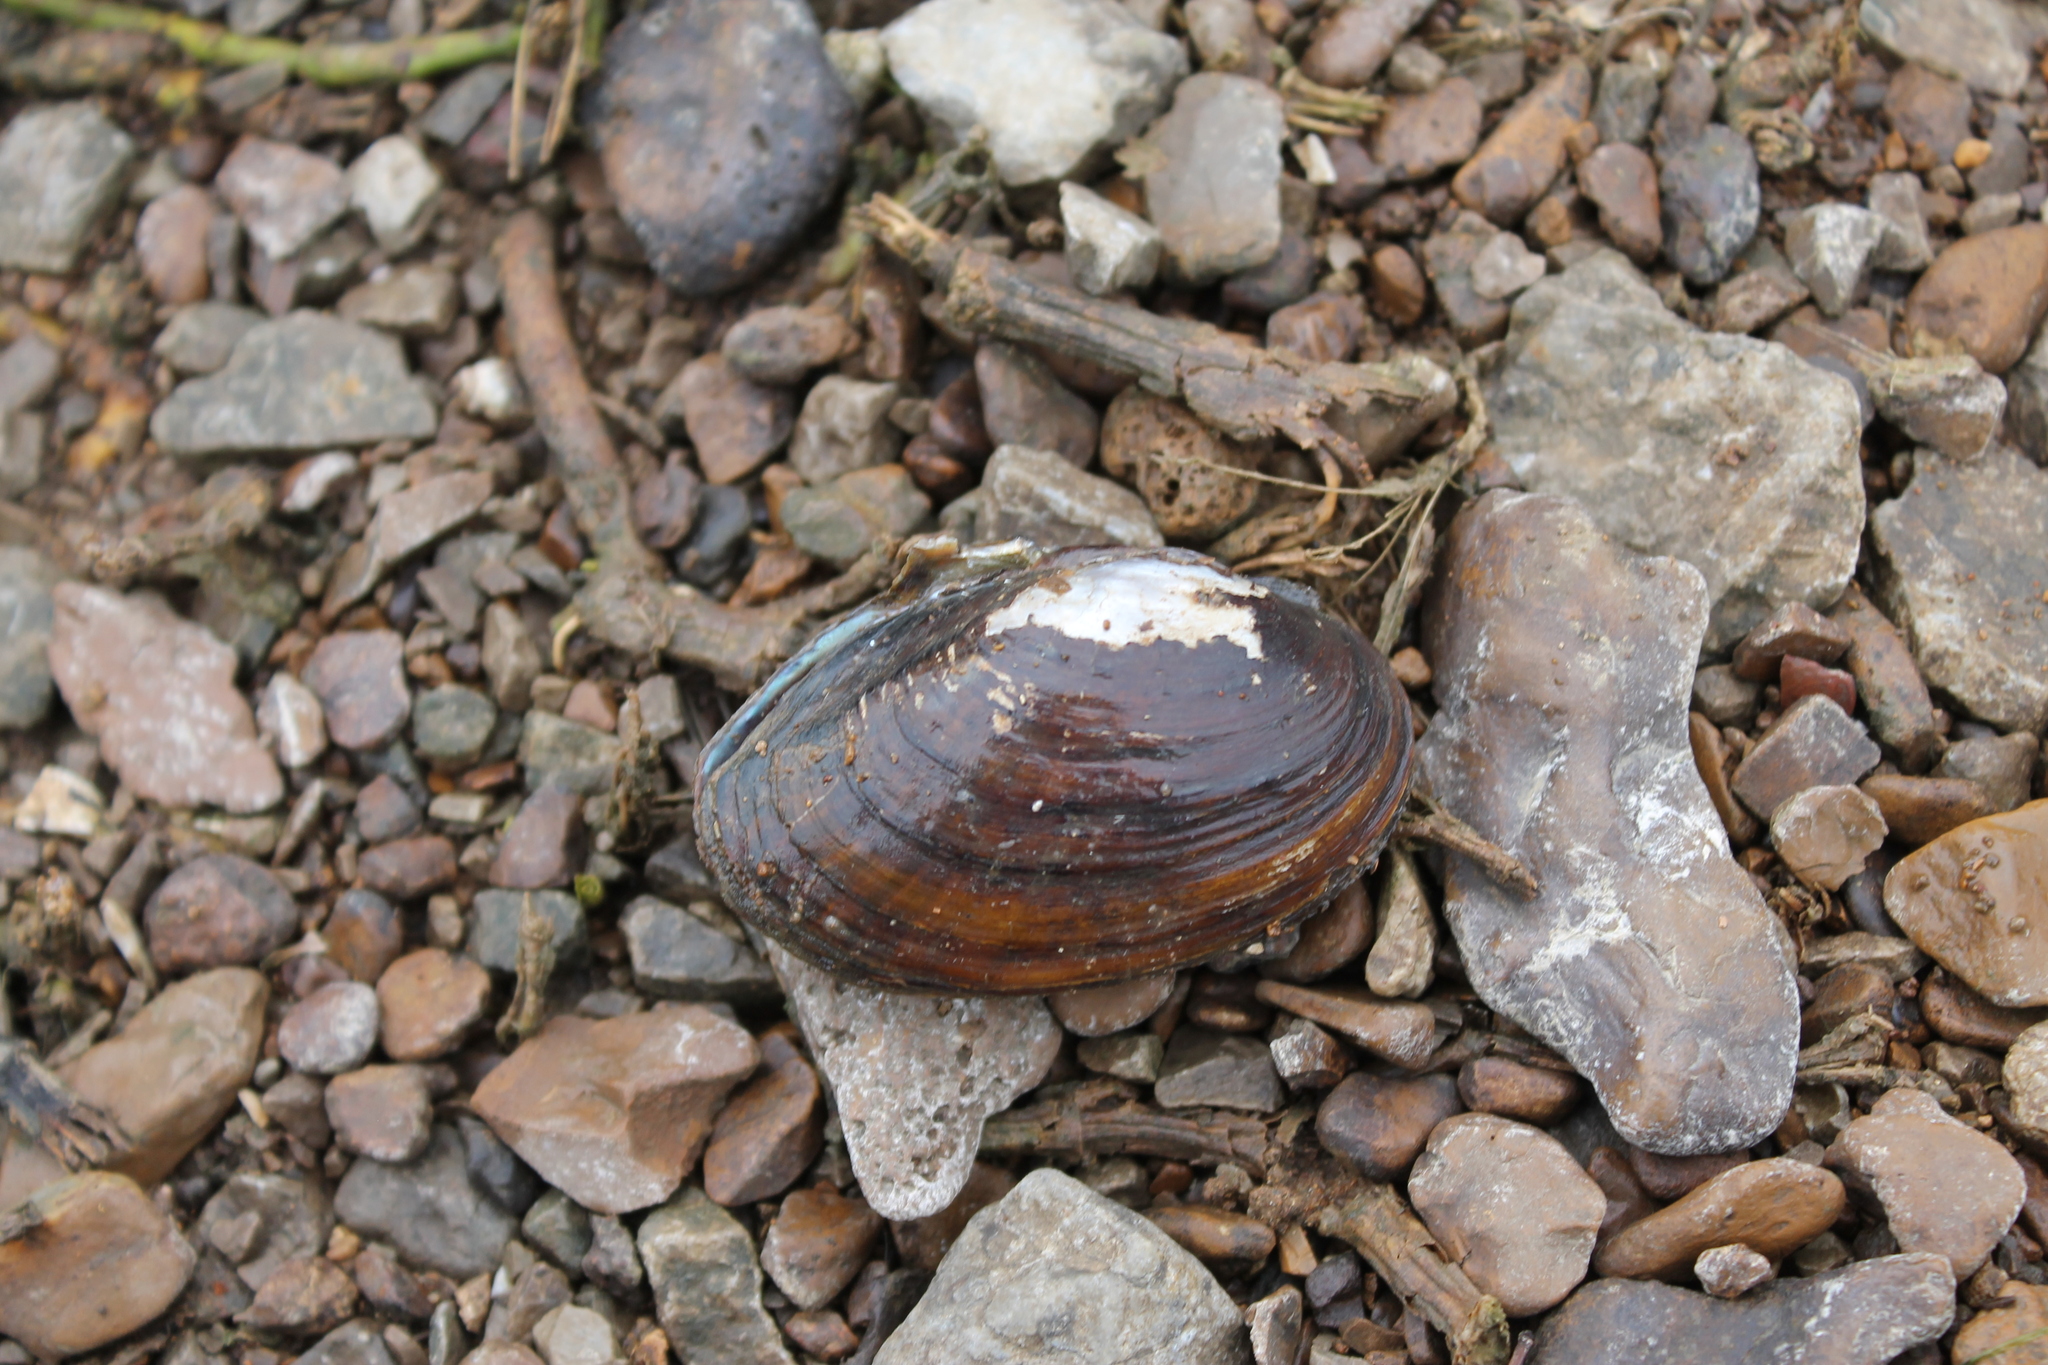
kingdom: Animalia
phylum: Mollusca
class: Bivalvia
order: Unionida
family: Unionidae
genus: Leaunio
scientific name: Leaunio vanuxemensis
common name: Mountain creekshell
